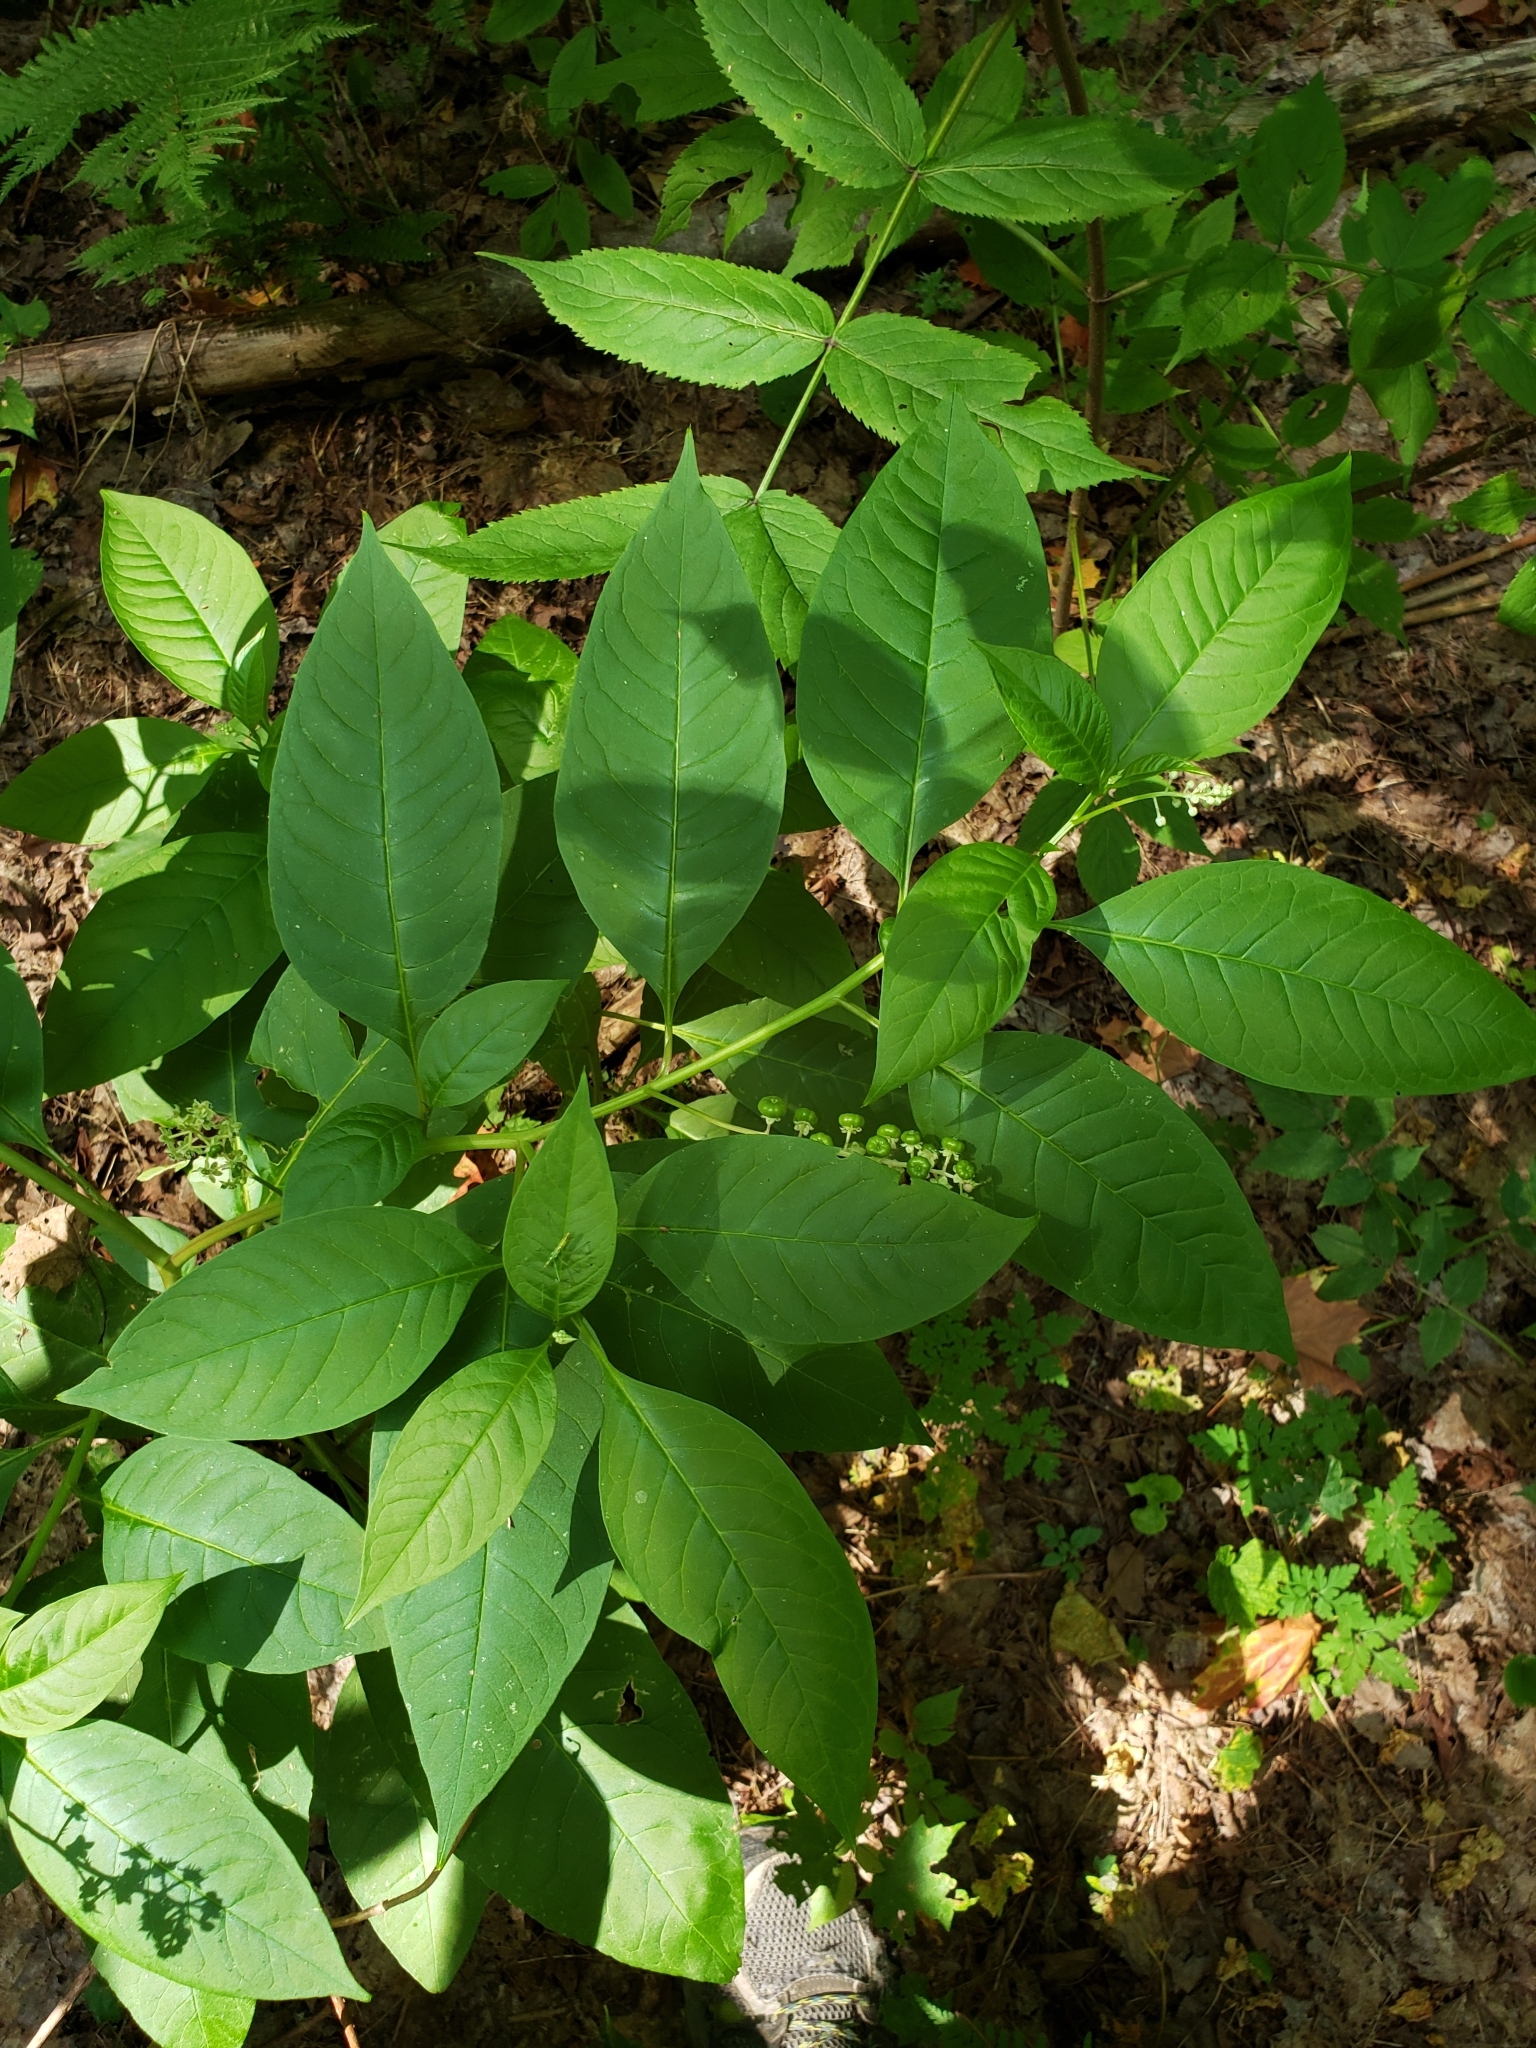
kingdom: Plantae
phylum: Tracheophyta
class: Magnoliopsida
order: Caryophyllales
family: Phytolaccaceae
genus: Phytolacca
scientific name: Phytolacca americana
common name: American pokeweed
